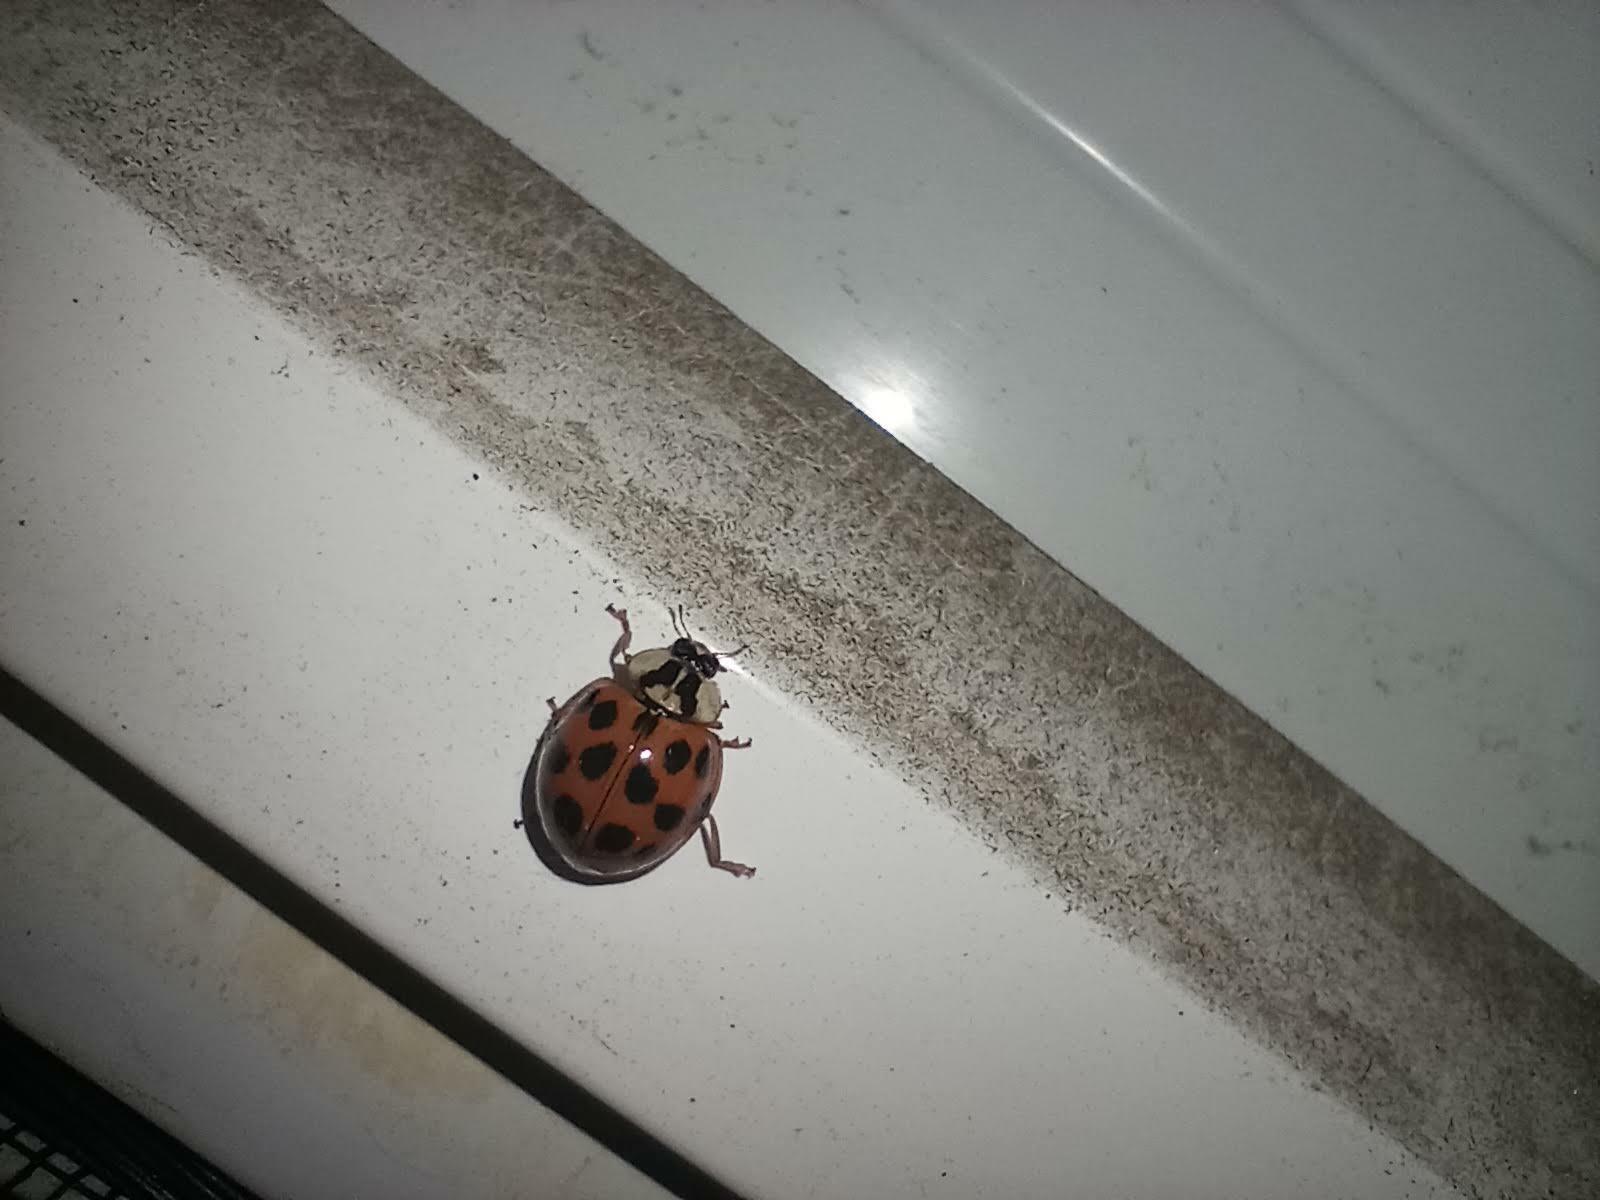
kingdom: Animalia
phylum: Arthropoda
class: Insecta
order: Coleoptera
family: Coccinellidae
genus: Harmonia
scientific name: Harmonia axyridis
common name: Harlequin ladybird
